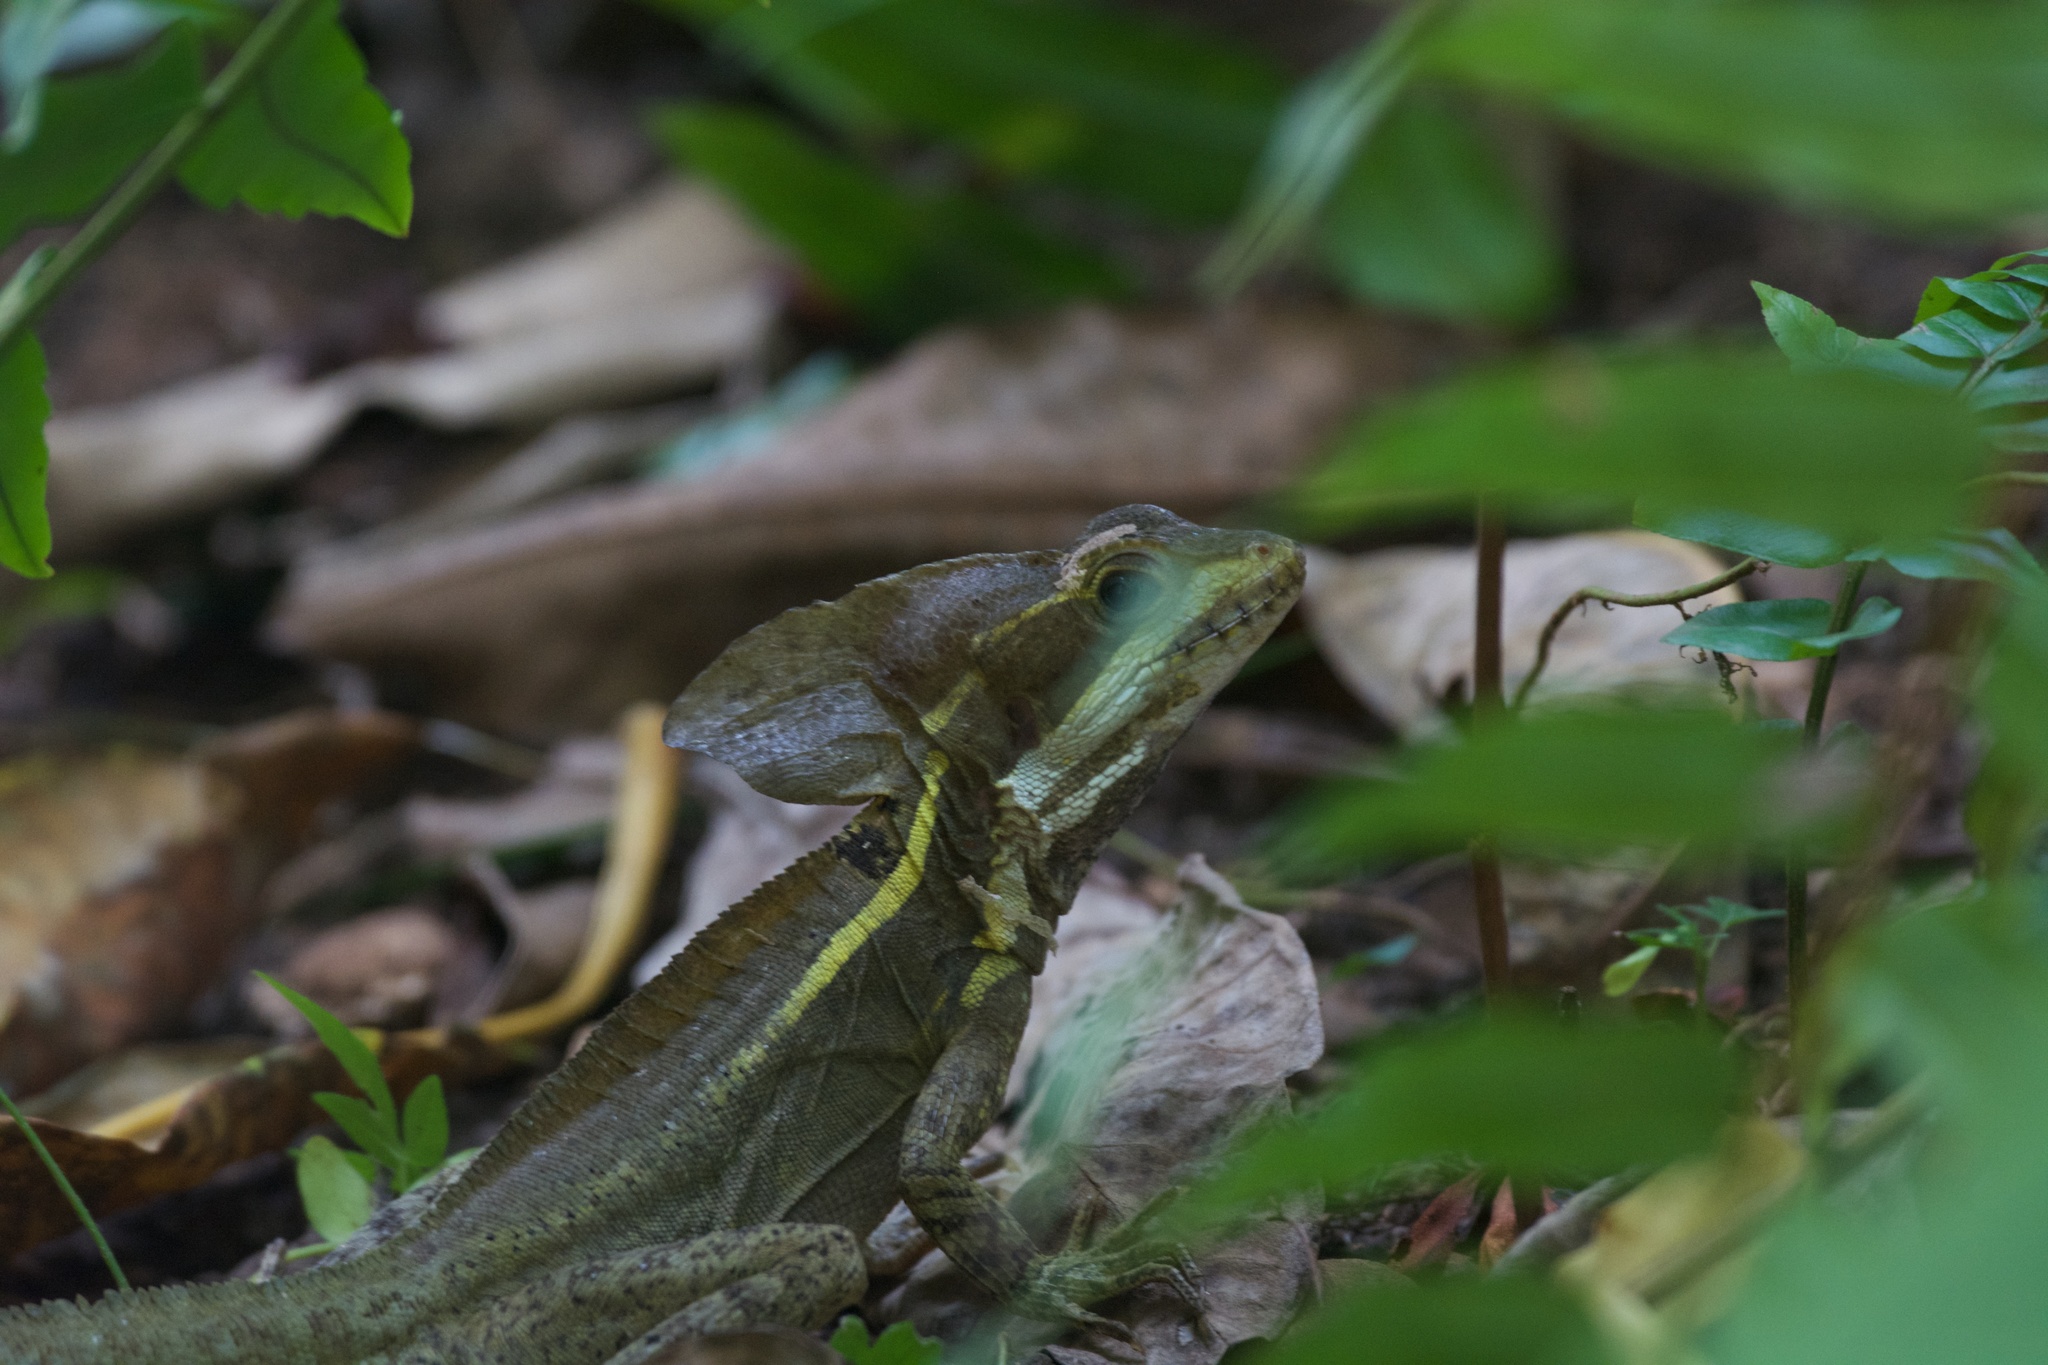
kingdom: Animalia
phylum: Chordata
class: Squamata
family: Corytophanidae
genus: Basiliscus
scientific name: Basiliscus vittatus
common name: Brown basilisk
